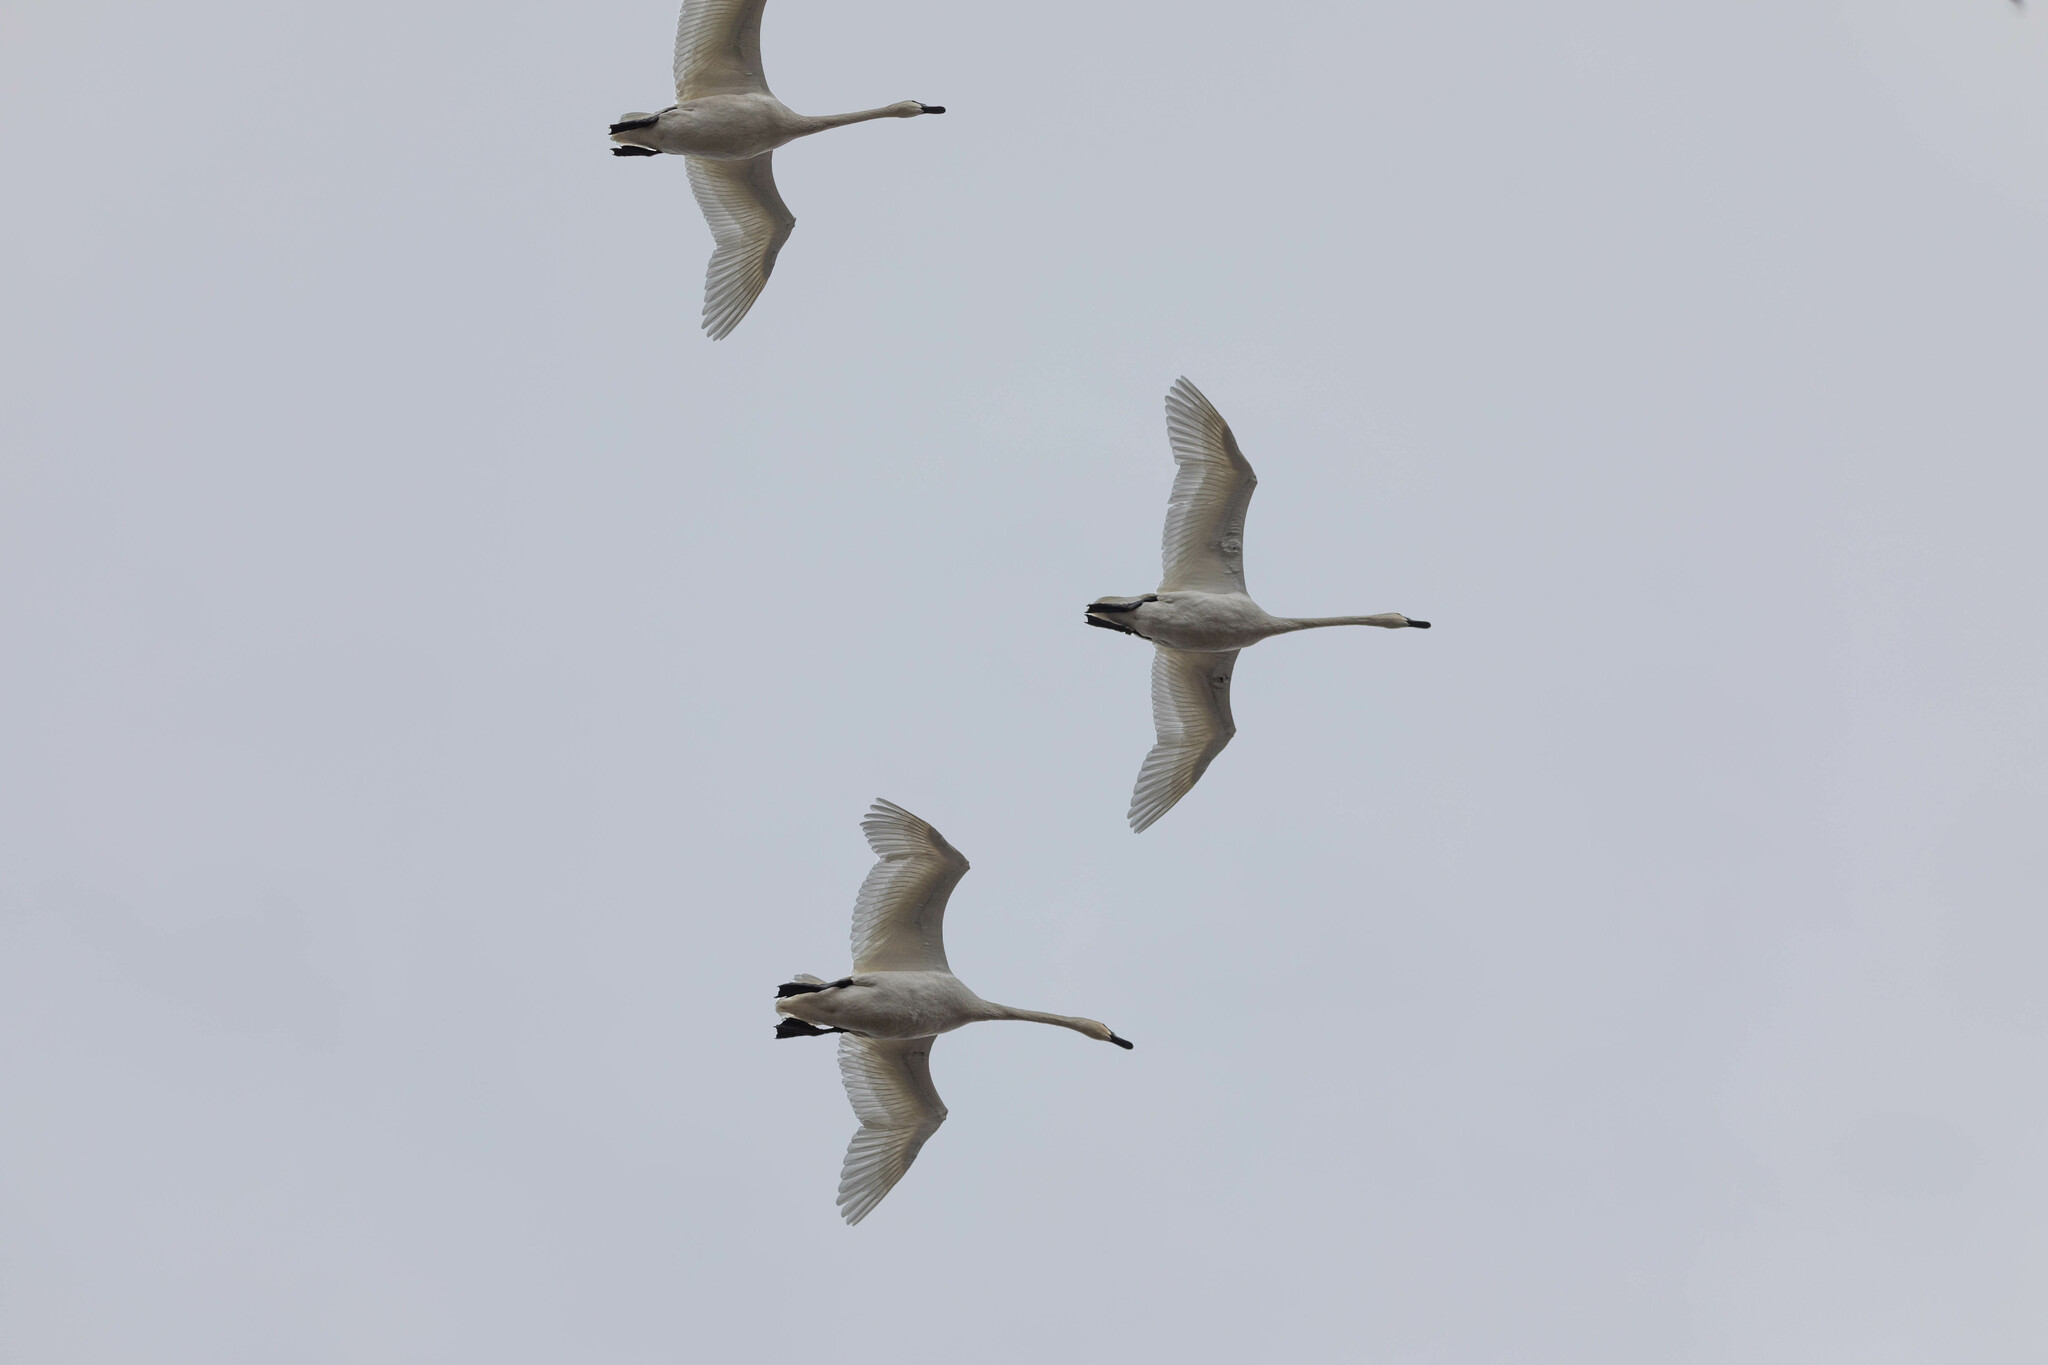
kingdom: Animalia
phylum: Chordata
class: Aves
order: Anseriformes
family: Anatidae
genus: Cygnus
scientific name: Cygnus buccinator
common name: Trumpeter swan
